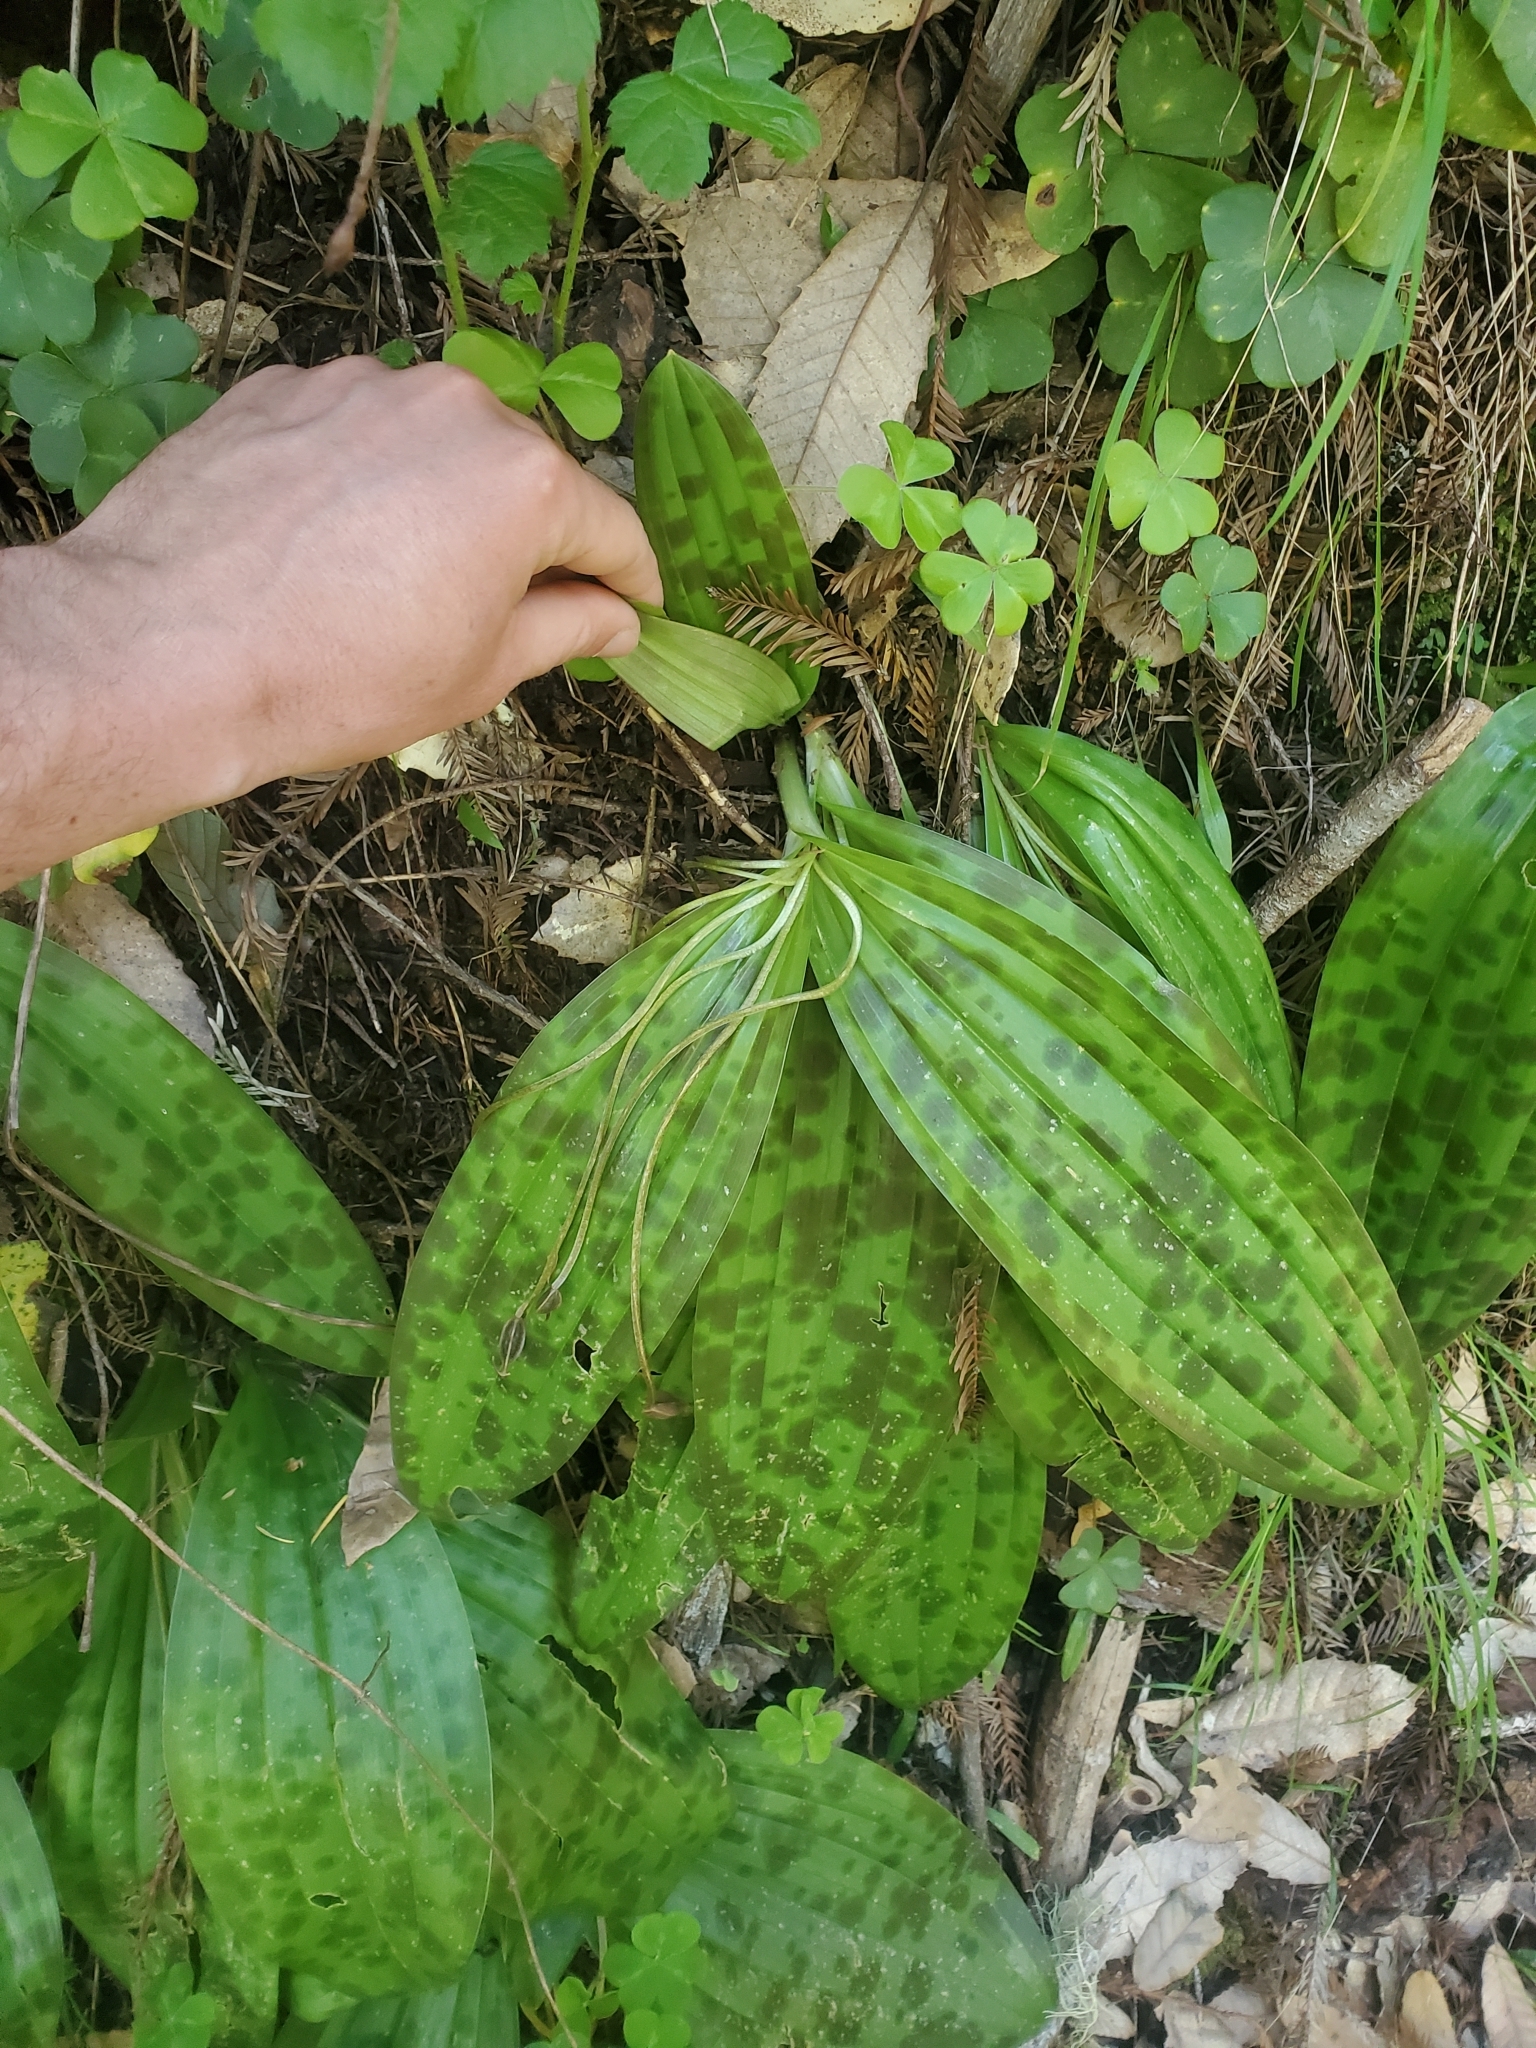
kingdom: Plantae
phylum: Tracheophyta
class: Liliopsida
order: Liliales
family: Liliaceae
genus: Scoliopus
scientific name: Scoliopus bigelovii
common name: Foetid adder's-tongue
